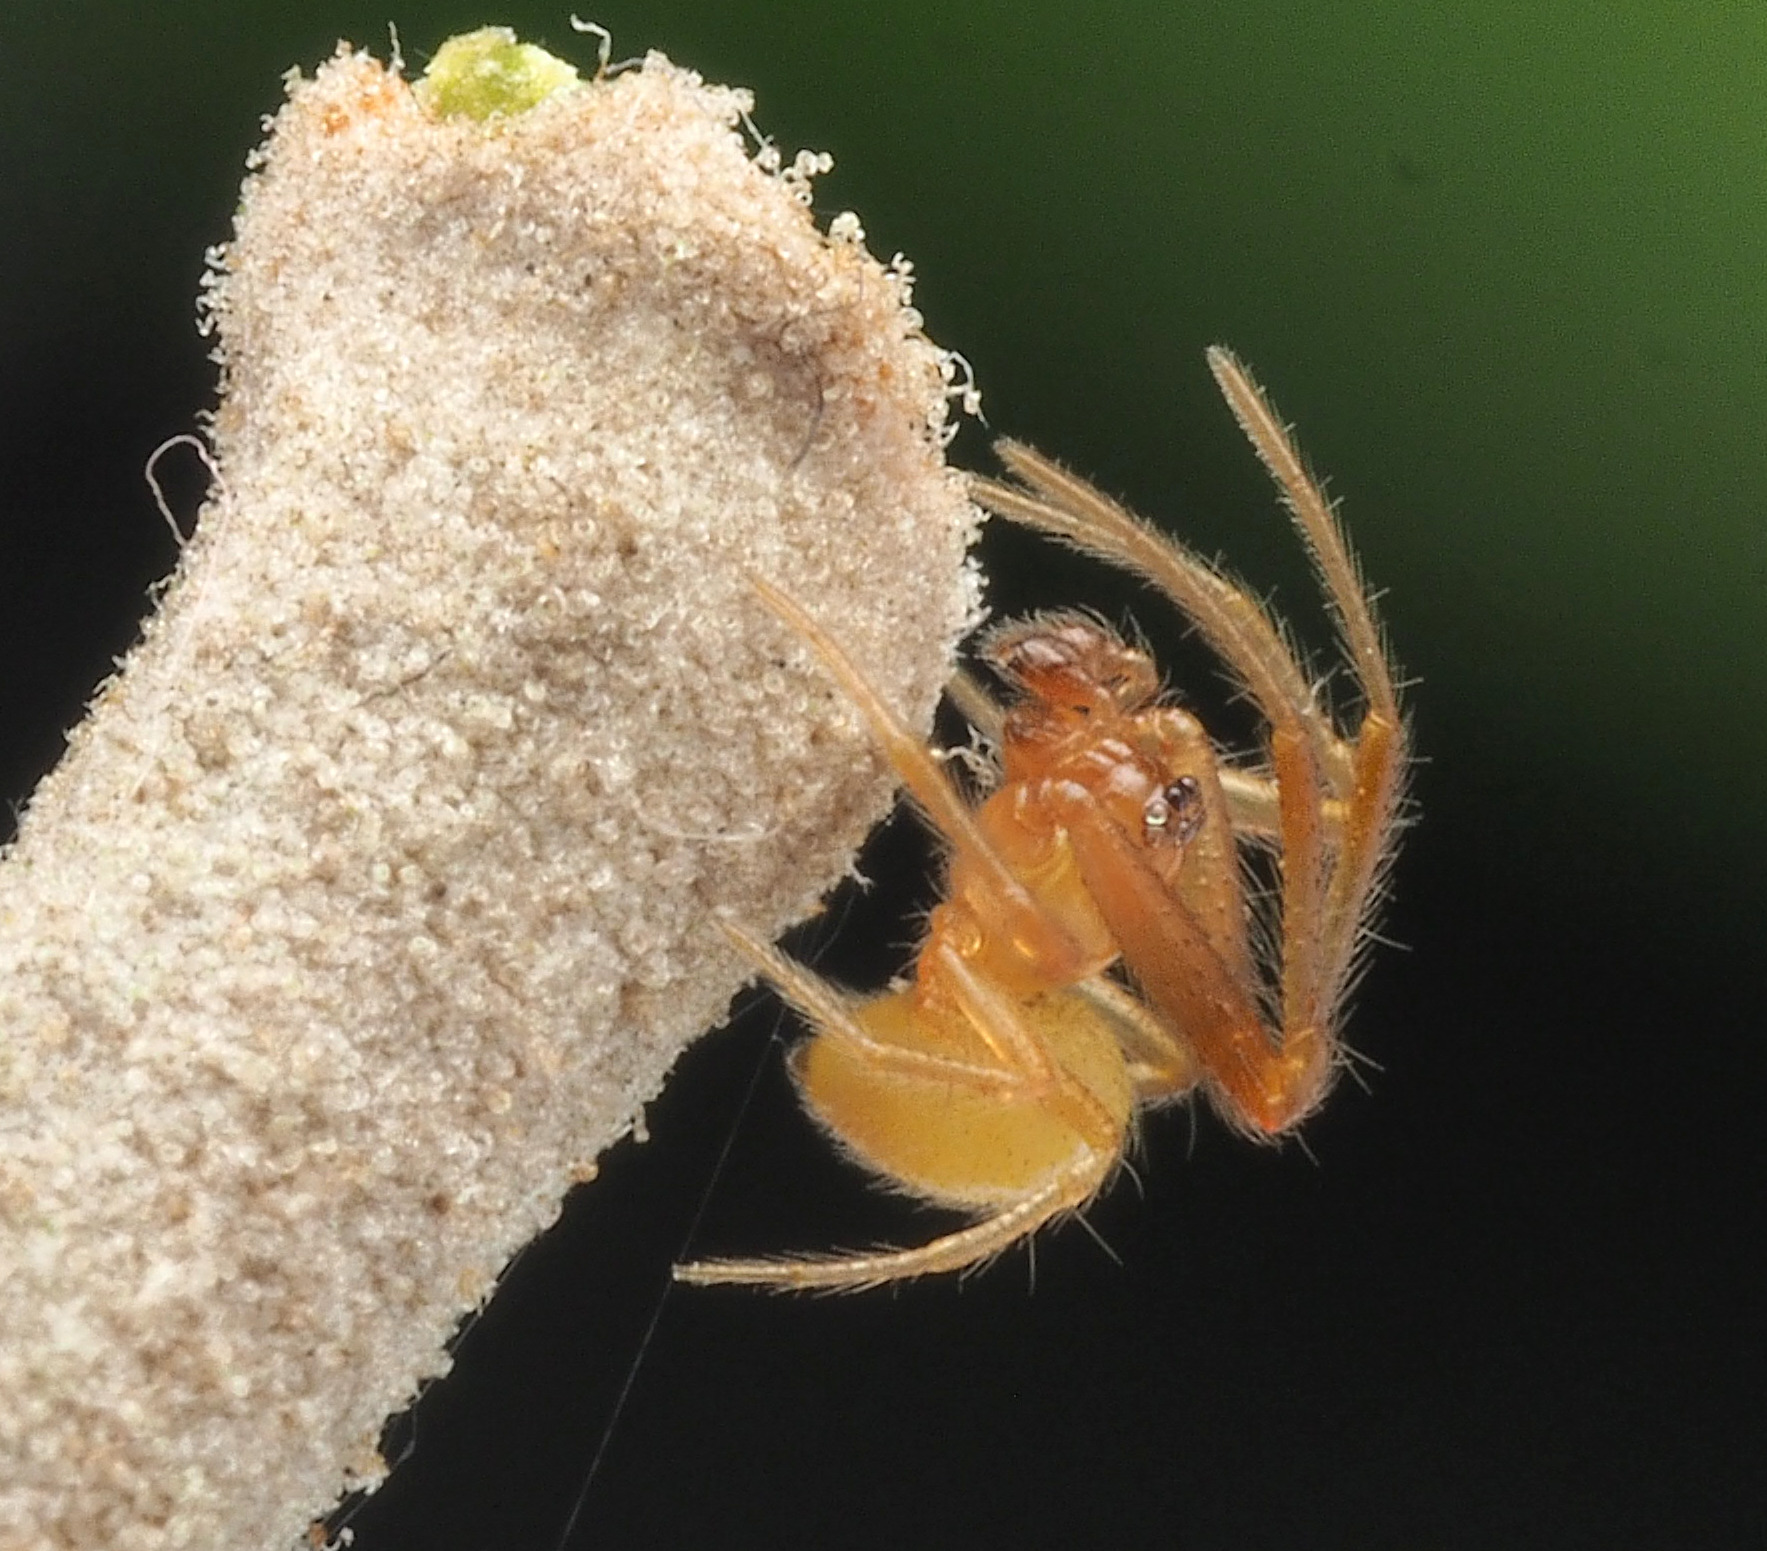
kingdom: Animalia
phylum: Arthropoda
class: Arachnida
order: Araneae
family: Theridiidae
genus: Anelosimus
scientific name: Anelosimus
